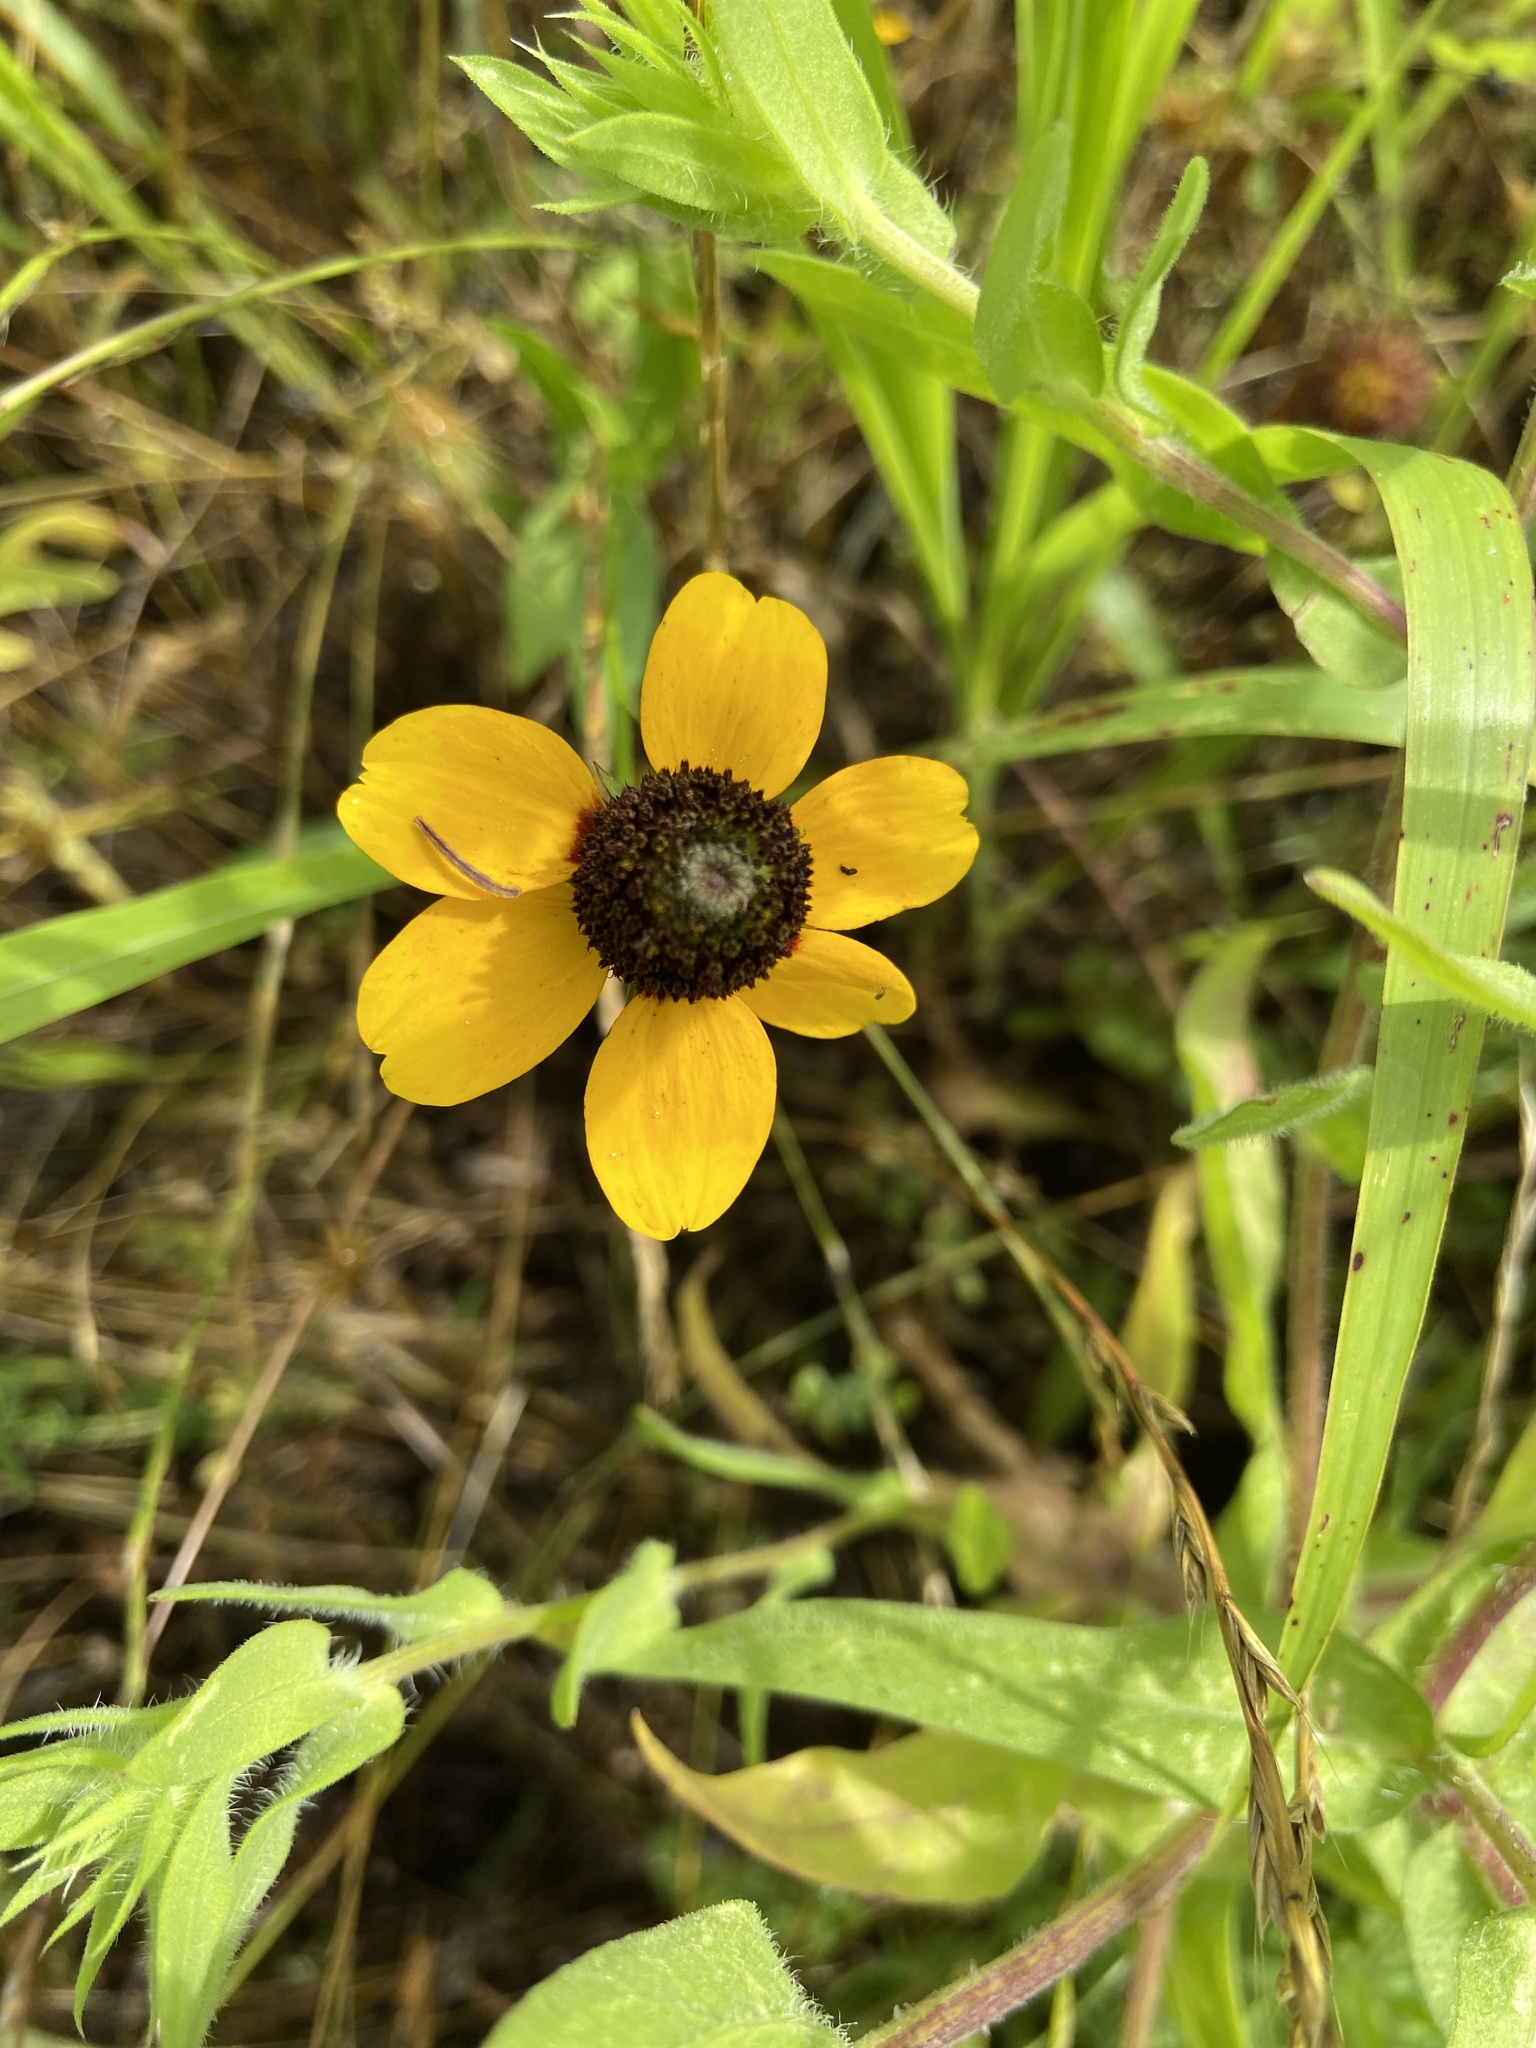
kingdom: Plantae
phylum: Tracheophyta
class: Magnoliopsida
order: Asterales
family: Asteraceae
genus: Rudbeckia
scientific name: Rudbeckia hirta
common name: Black-eyed-susan
